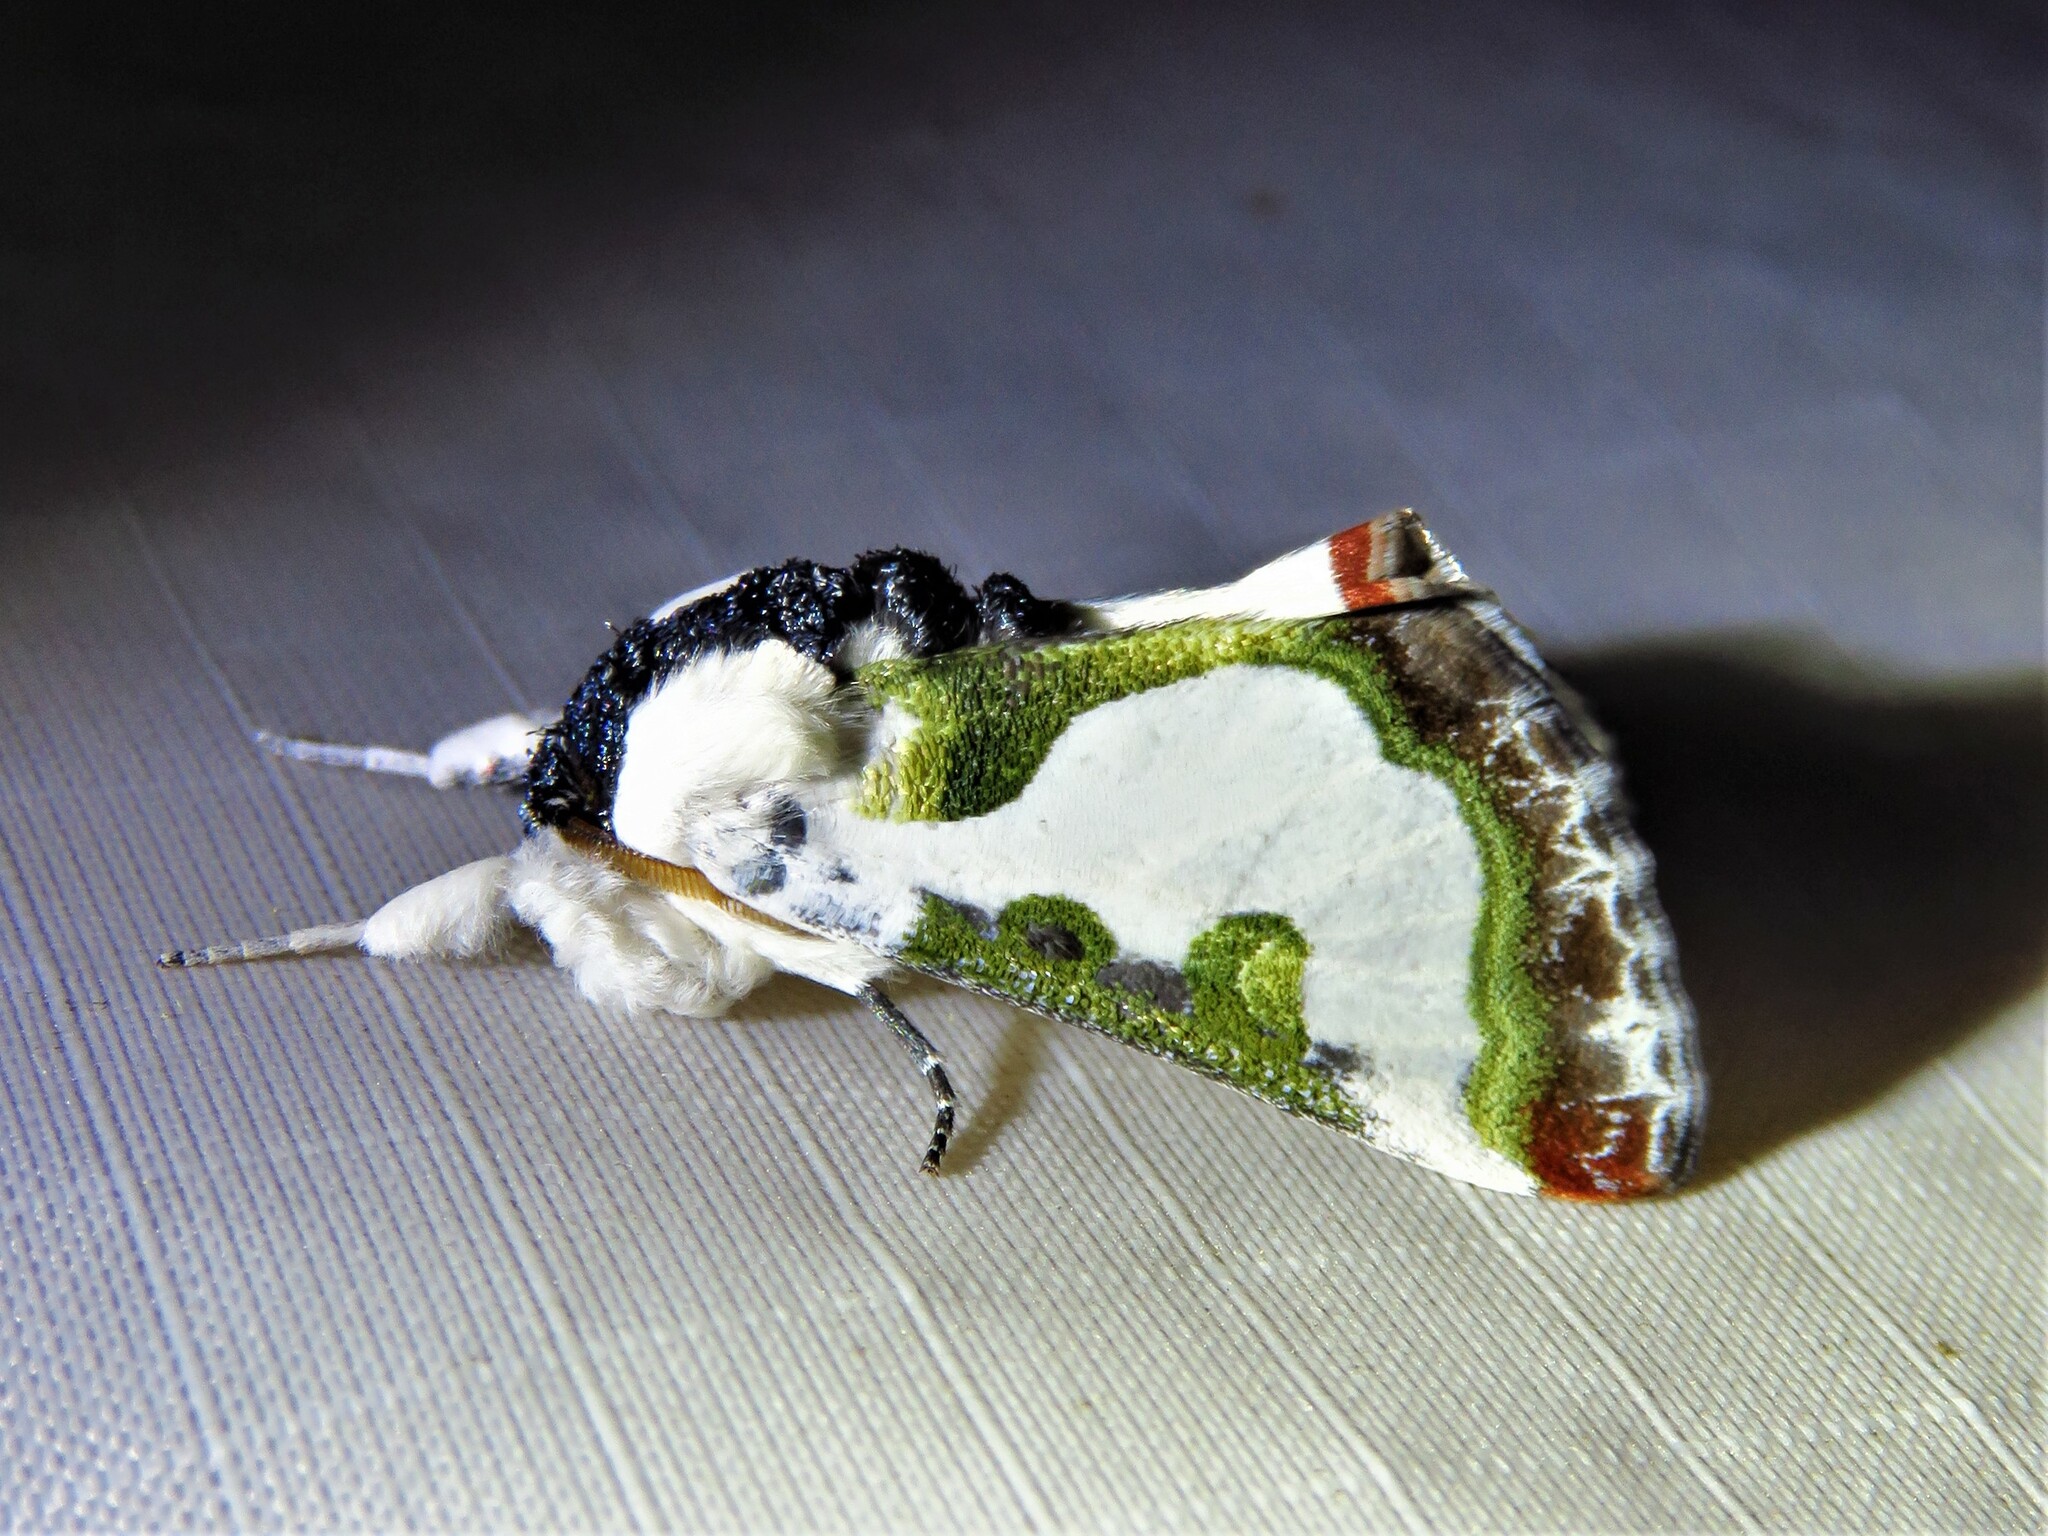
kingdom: Animalia
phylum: Arthropoda
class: Insecta
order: Lepidoptera
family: Noctuidae
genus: Xerociris
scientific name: Xerociris wilsonii
